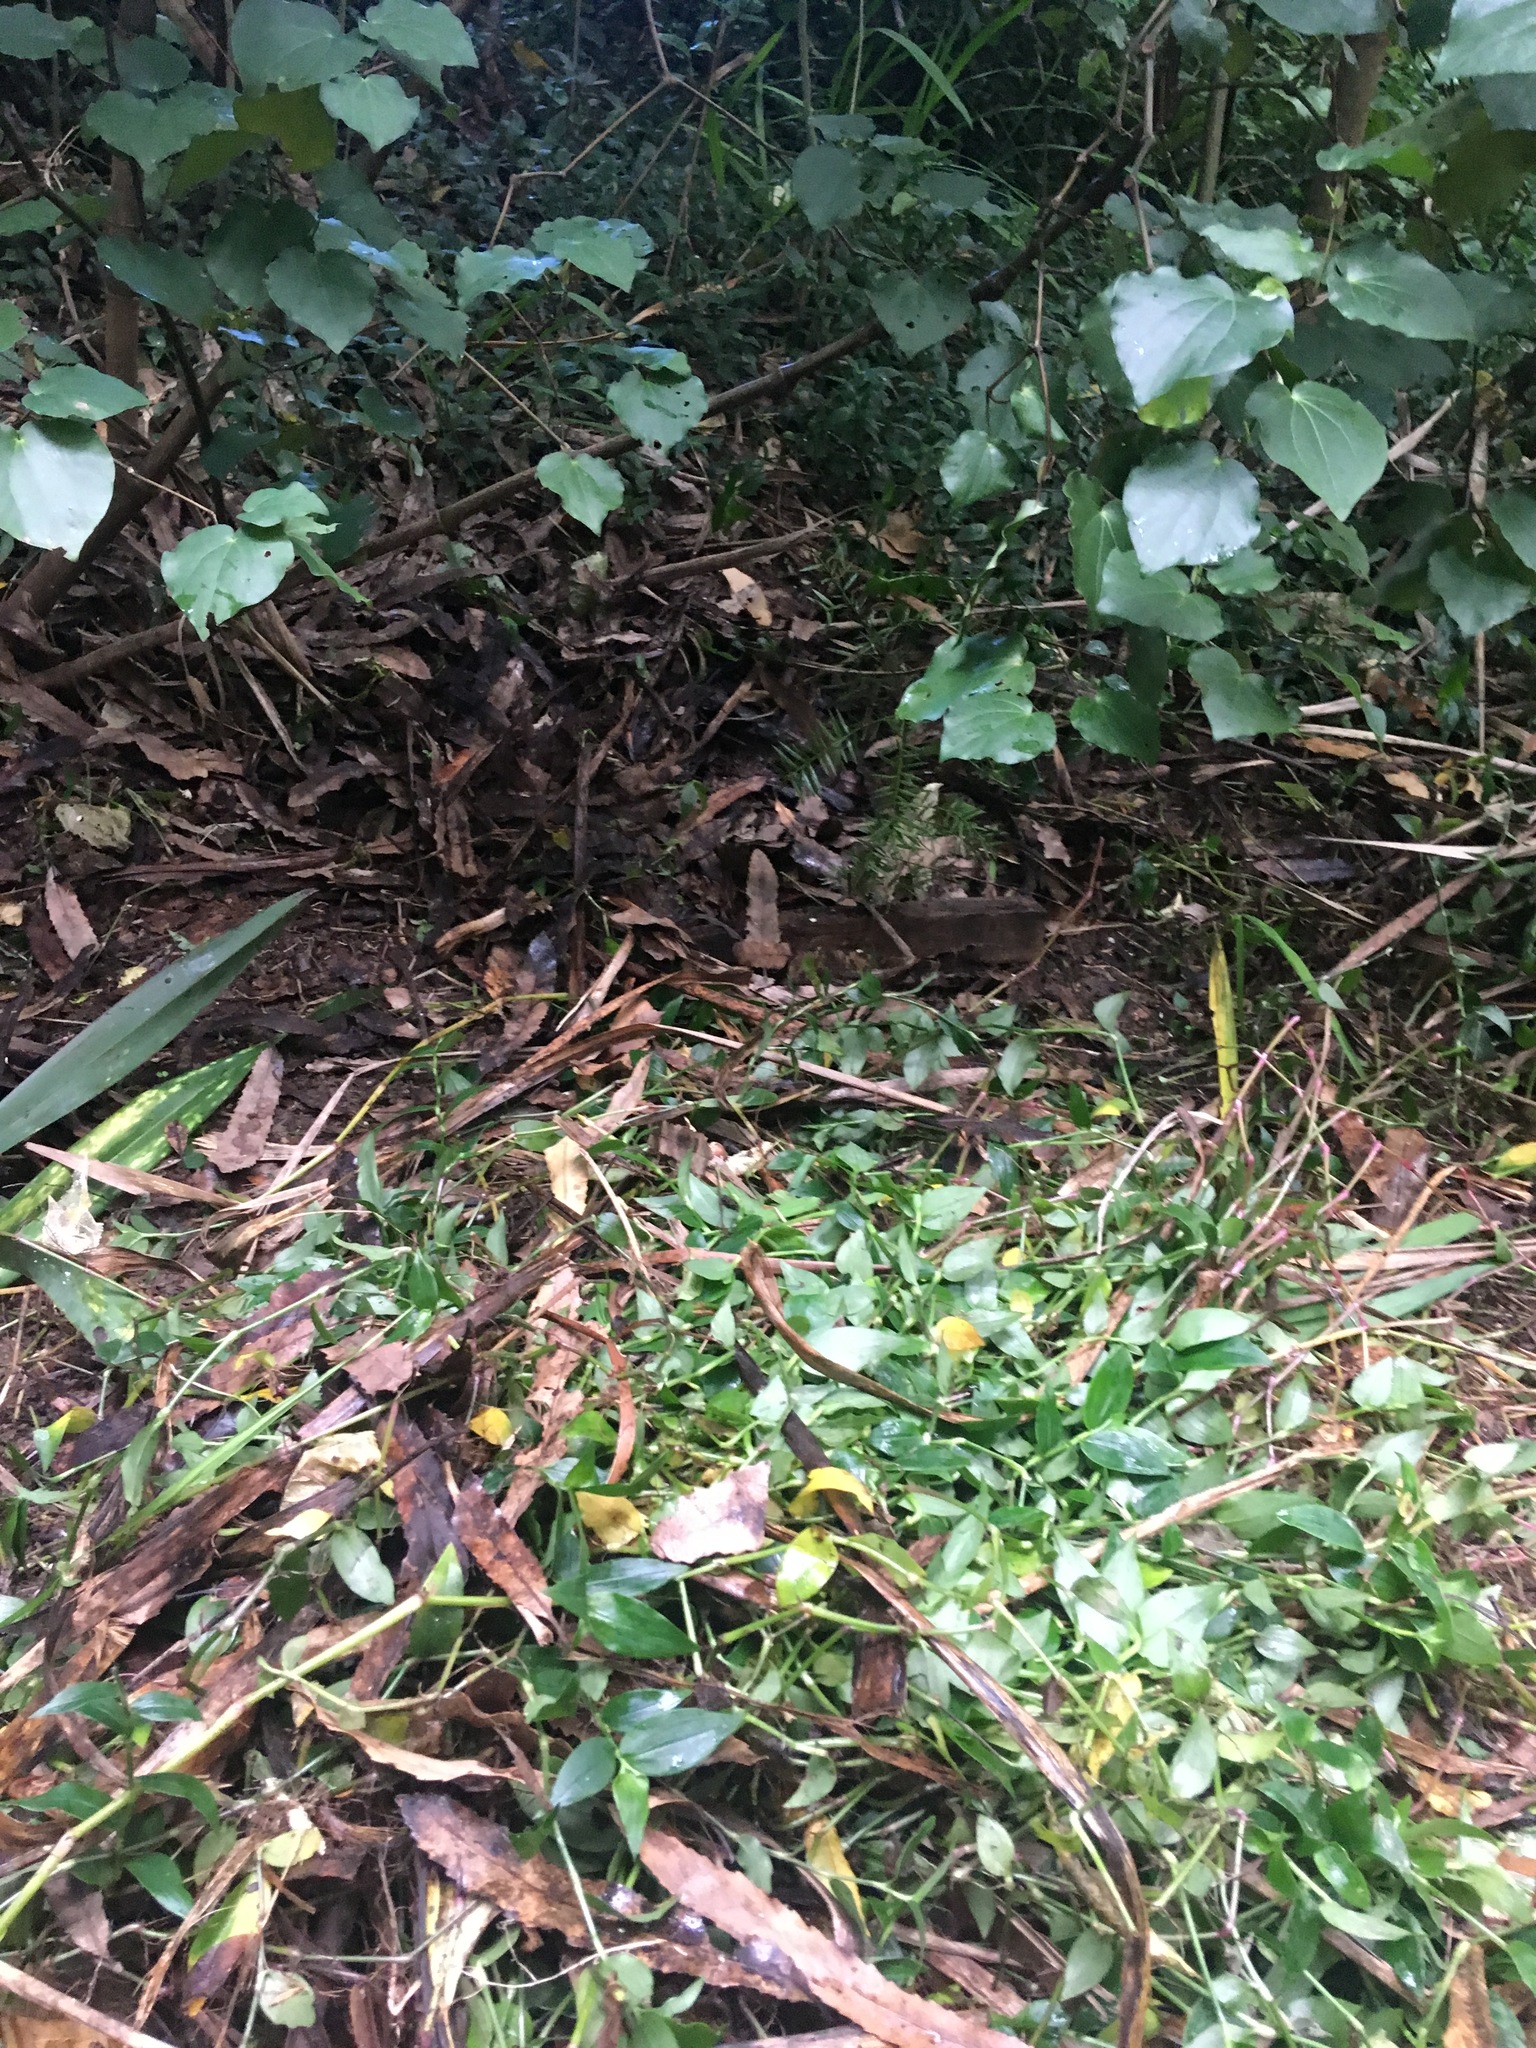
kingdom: Plantae
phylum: Tracheophyta
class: Magnoliopsida
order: Piperales
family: Piperaceae
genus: Macropiper
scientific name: Macropiper excelsum
